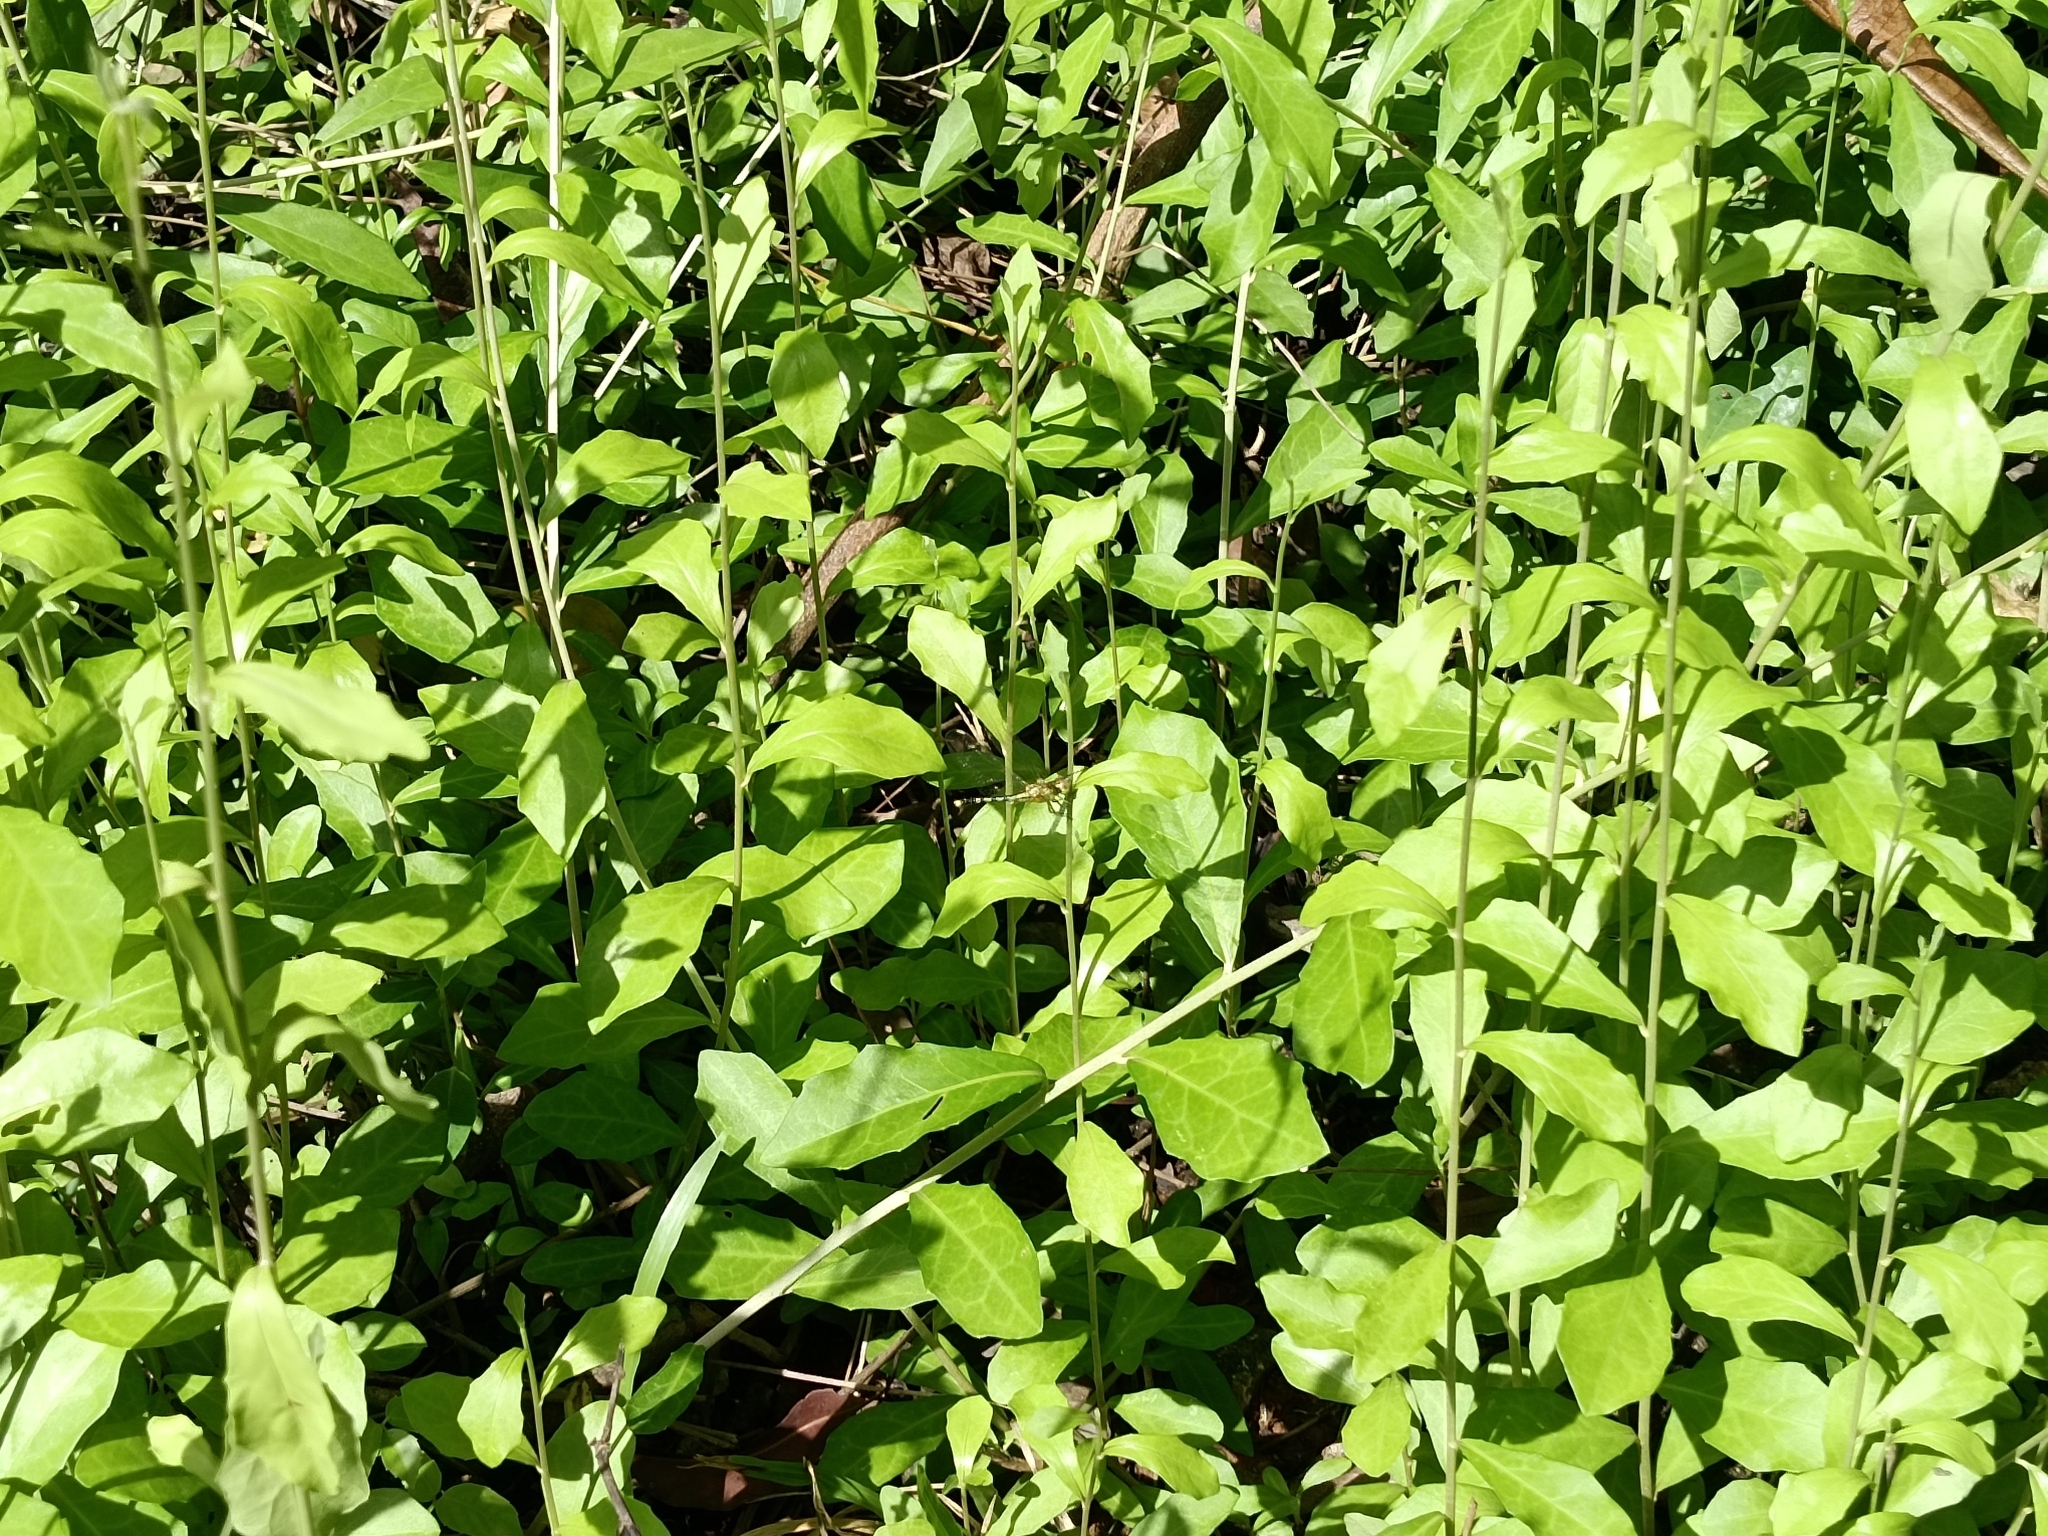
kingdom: Plantae
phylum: Tracheophyta
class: Magnoliopsida
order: Asterales
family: Asteraceae
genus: Tarlmounia
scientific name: Tarlmounia elliptica
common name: Kheua sa lot
